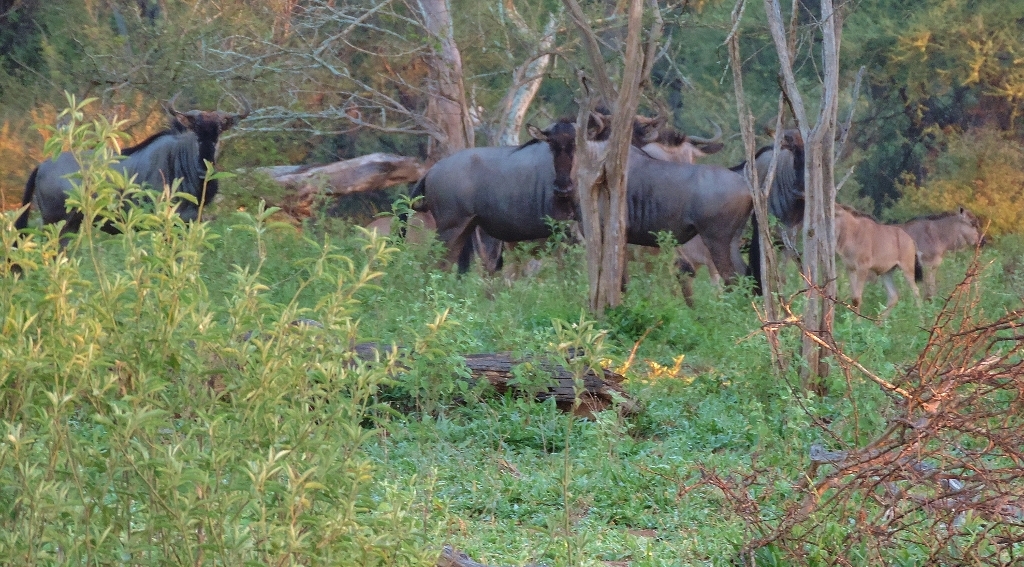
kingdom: Animalia
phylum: Chordata
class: Mammalia
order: Artiodactyla
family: Bovidae
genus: Connochaetes
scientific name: Connochaetes taurinus
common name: Blue wildebeest
